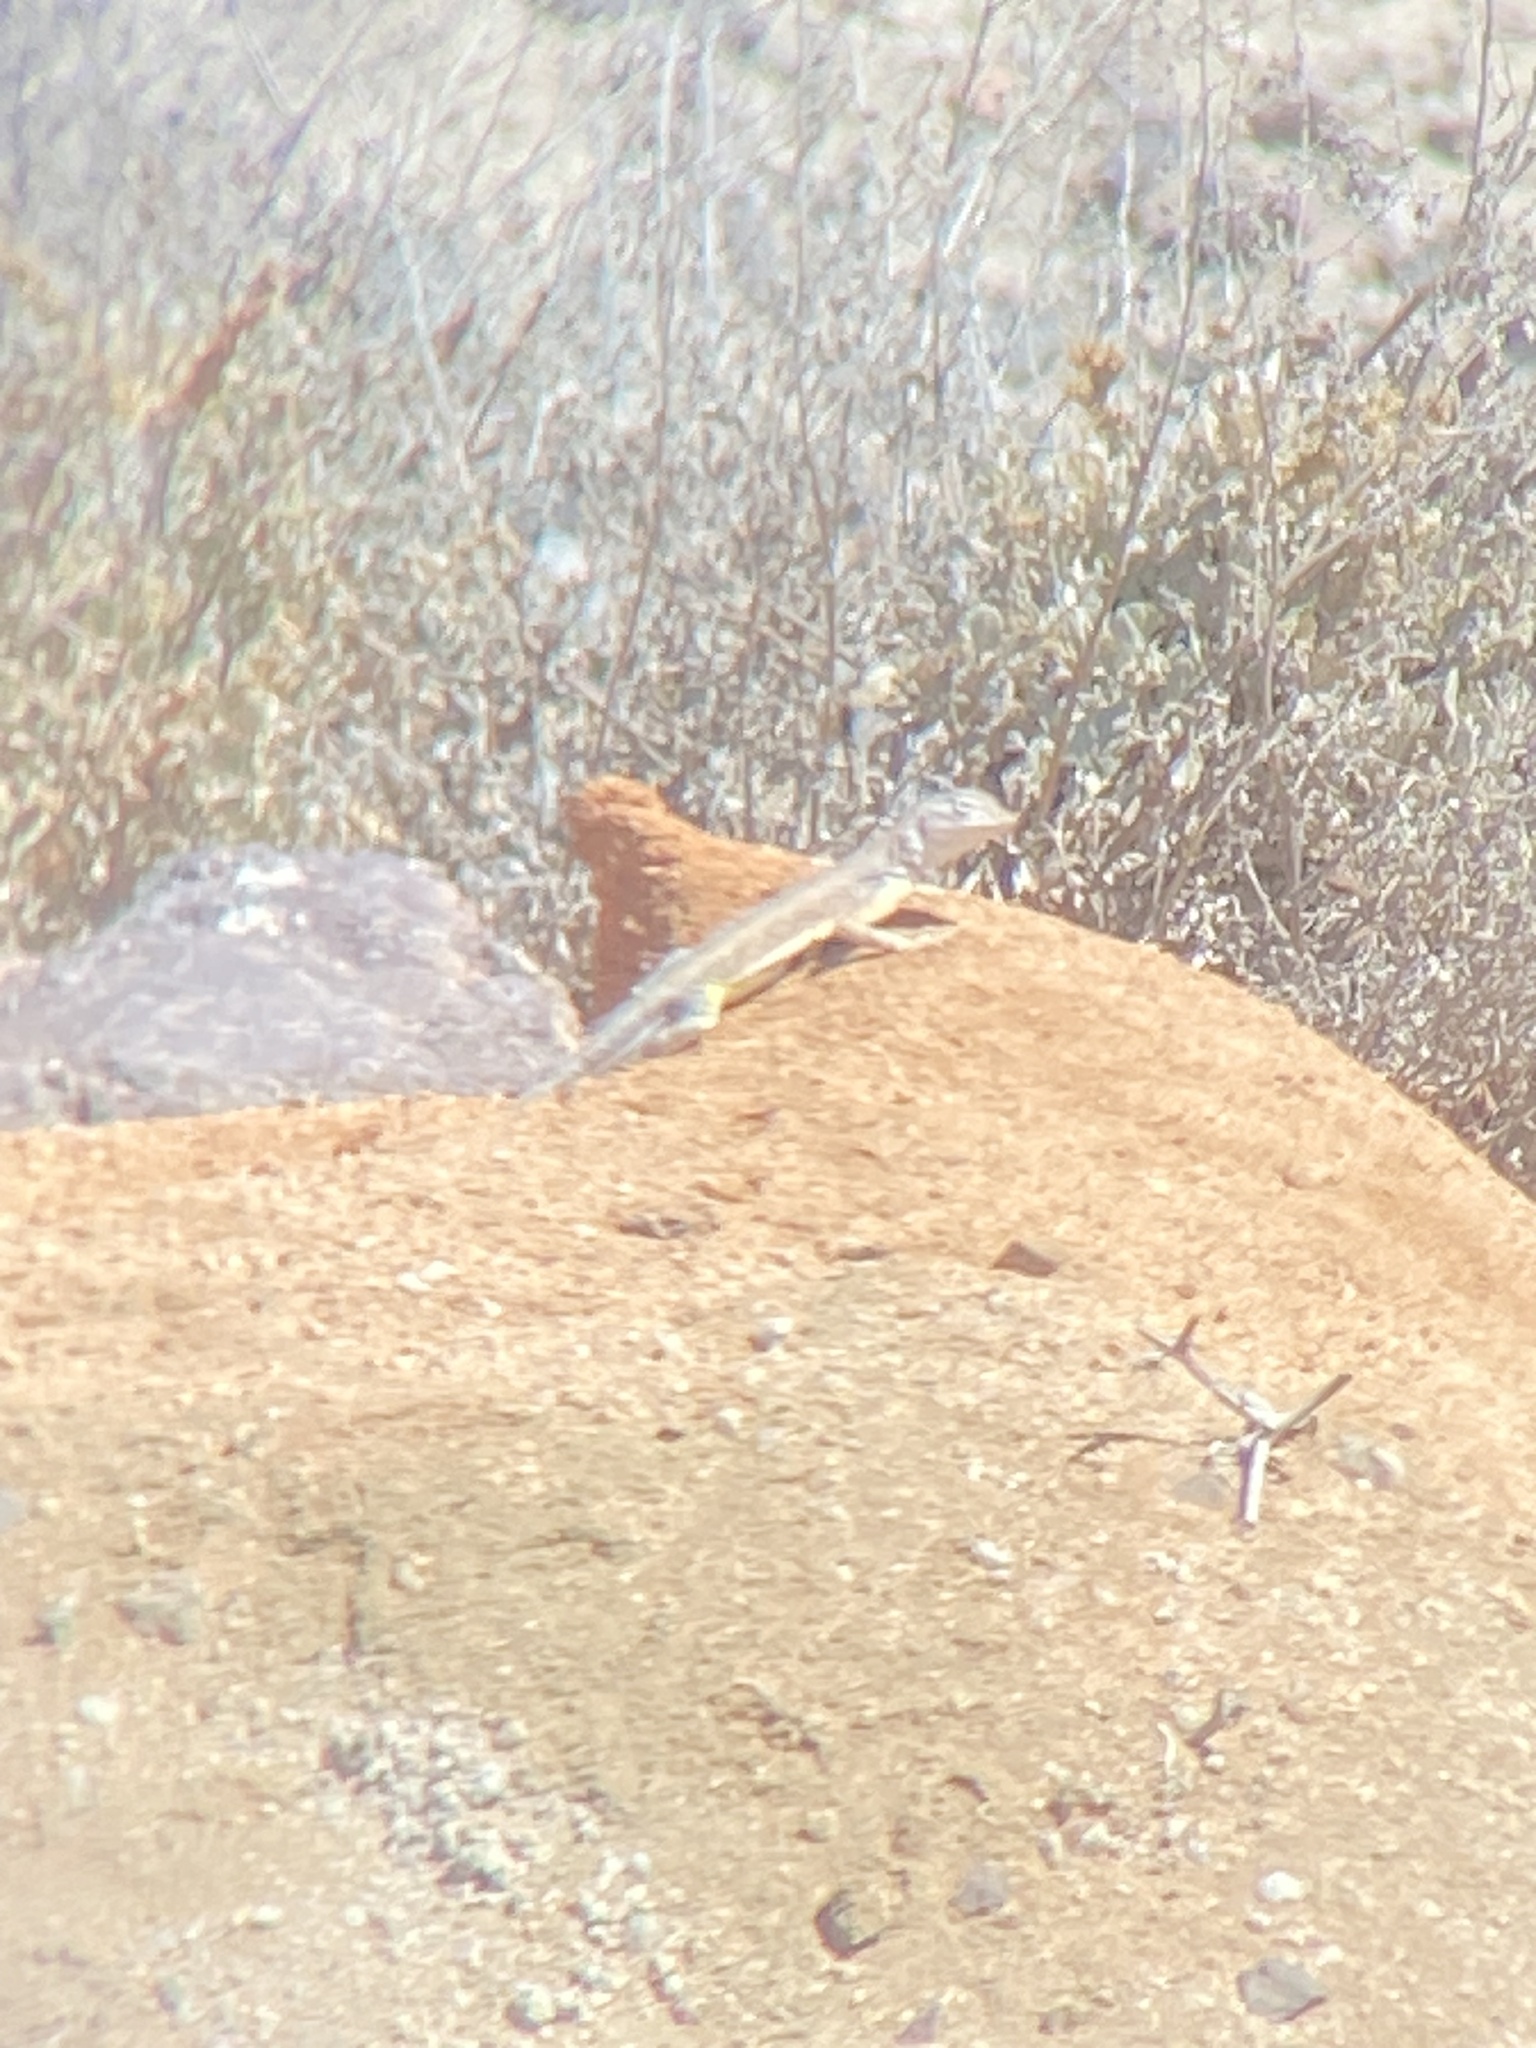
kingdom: Animalia
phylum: Chordata
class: Squamata
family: Phrynosomatidae
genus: Callisaurus
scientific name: Callisaurus draconoides
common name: Zebra-tailed lizard
